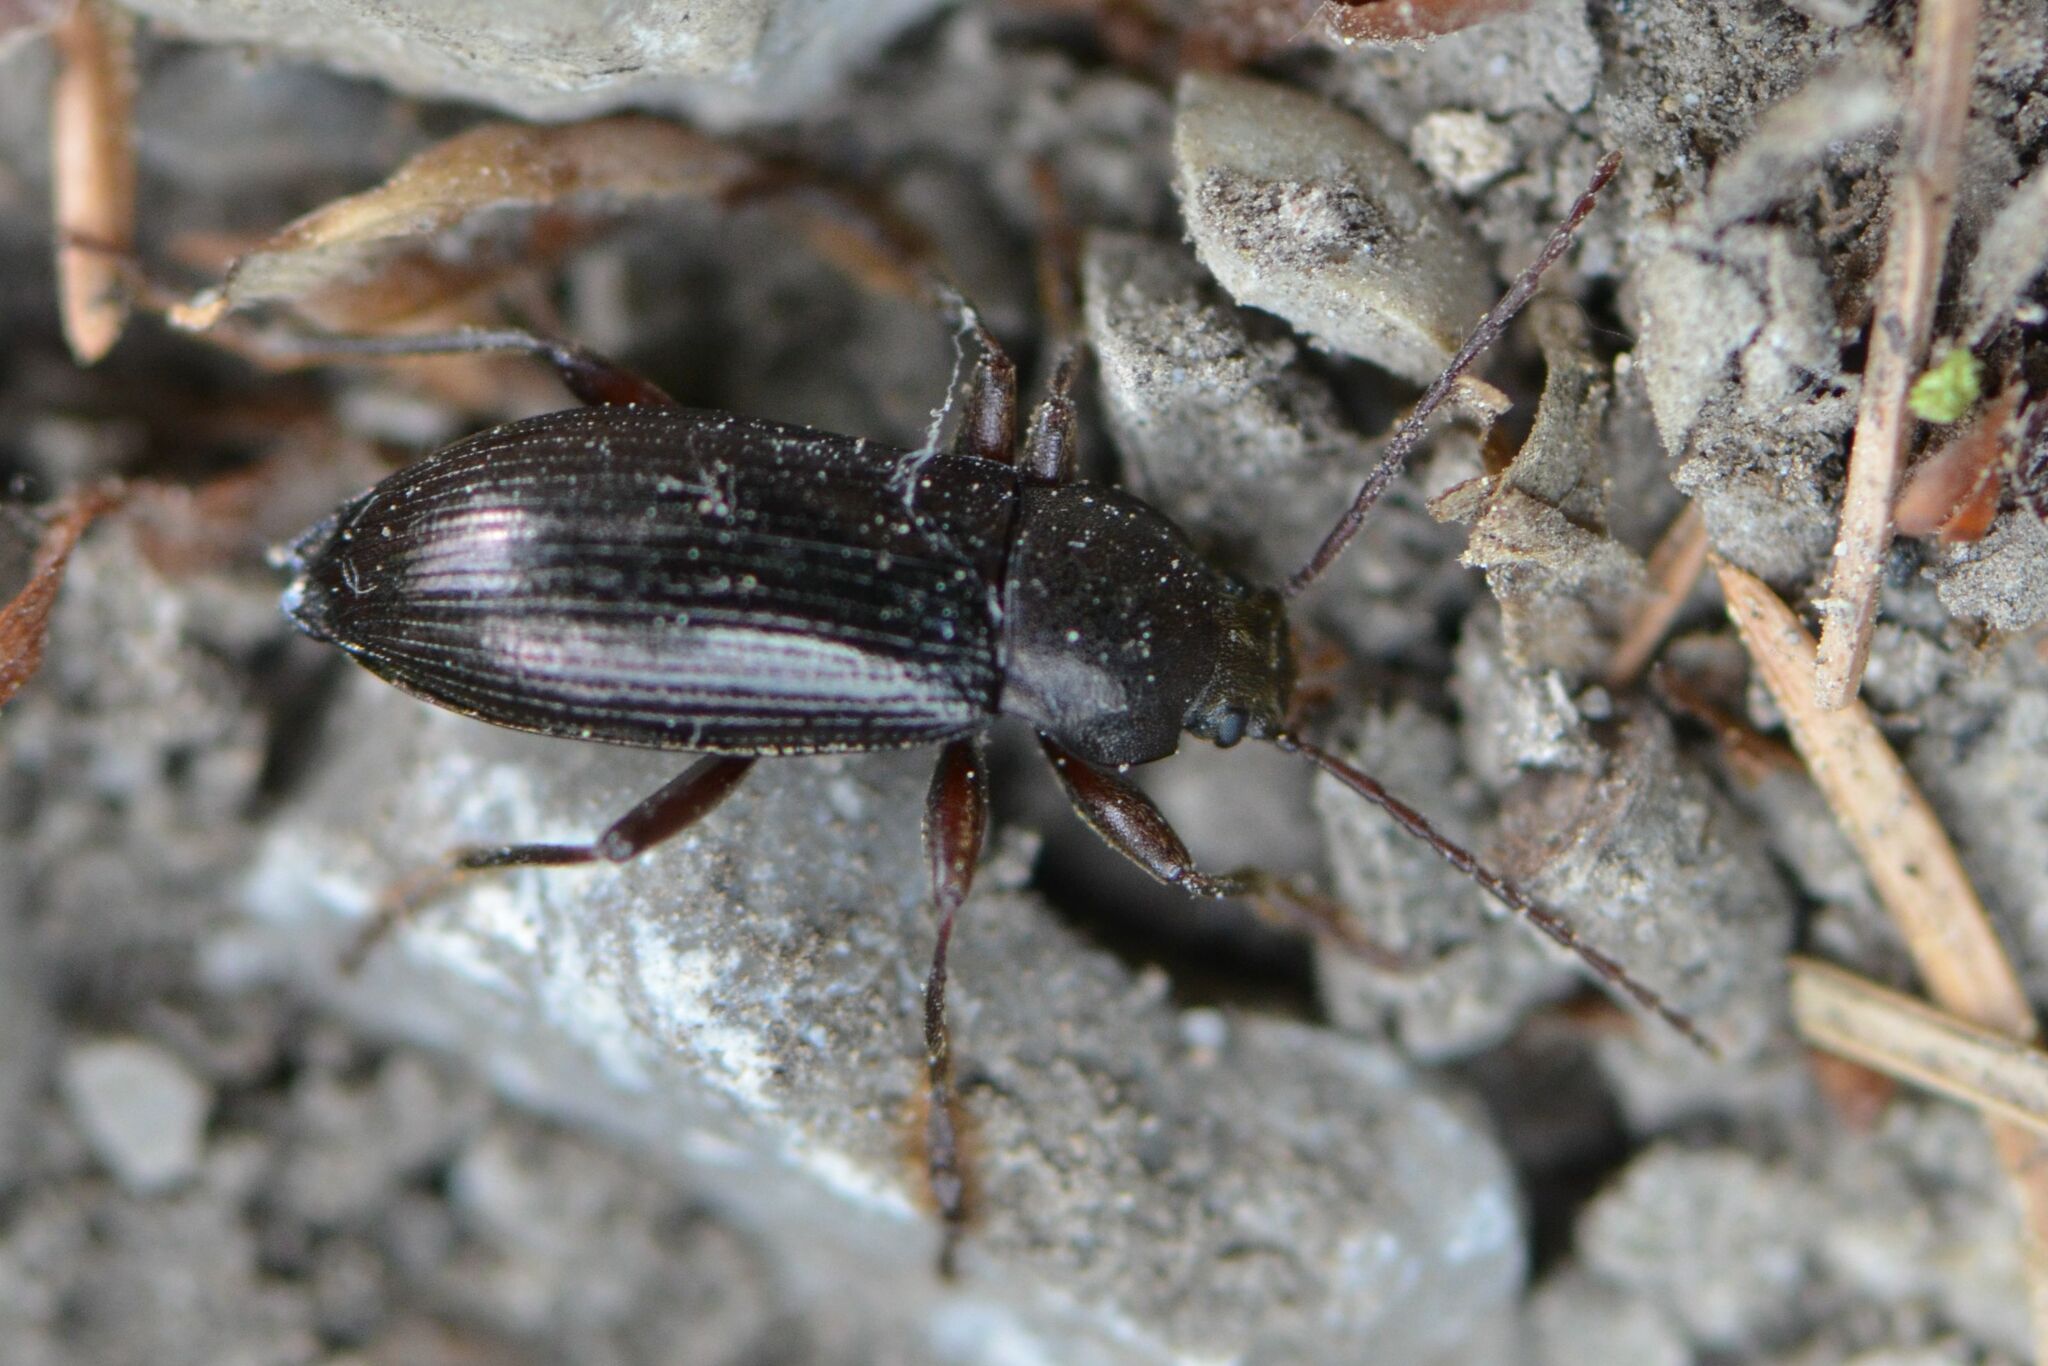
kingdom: Animalia
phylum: Arthropoda
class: Insecta
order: Coleoptera
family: Tenebrionidae
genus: Stenomax
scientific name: Stenomax aeneus
